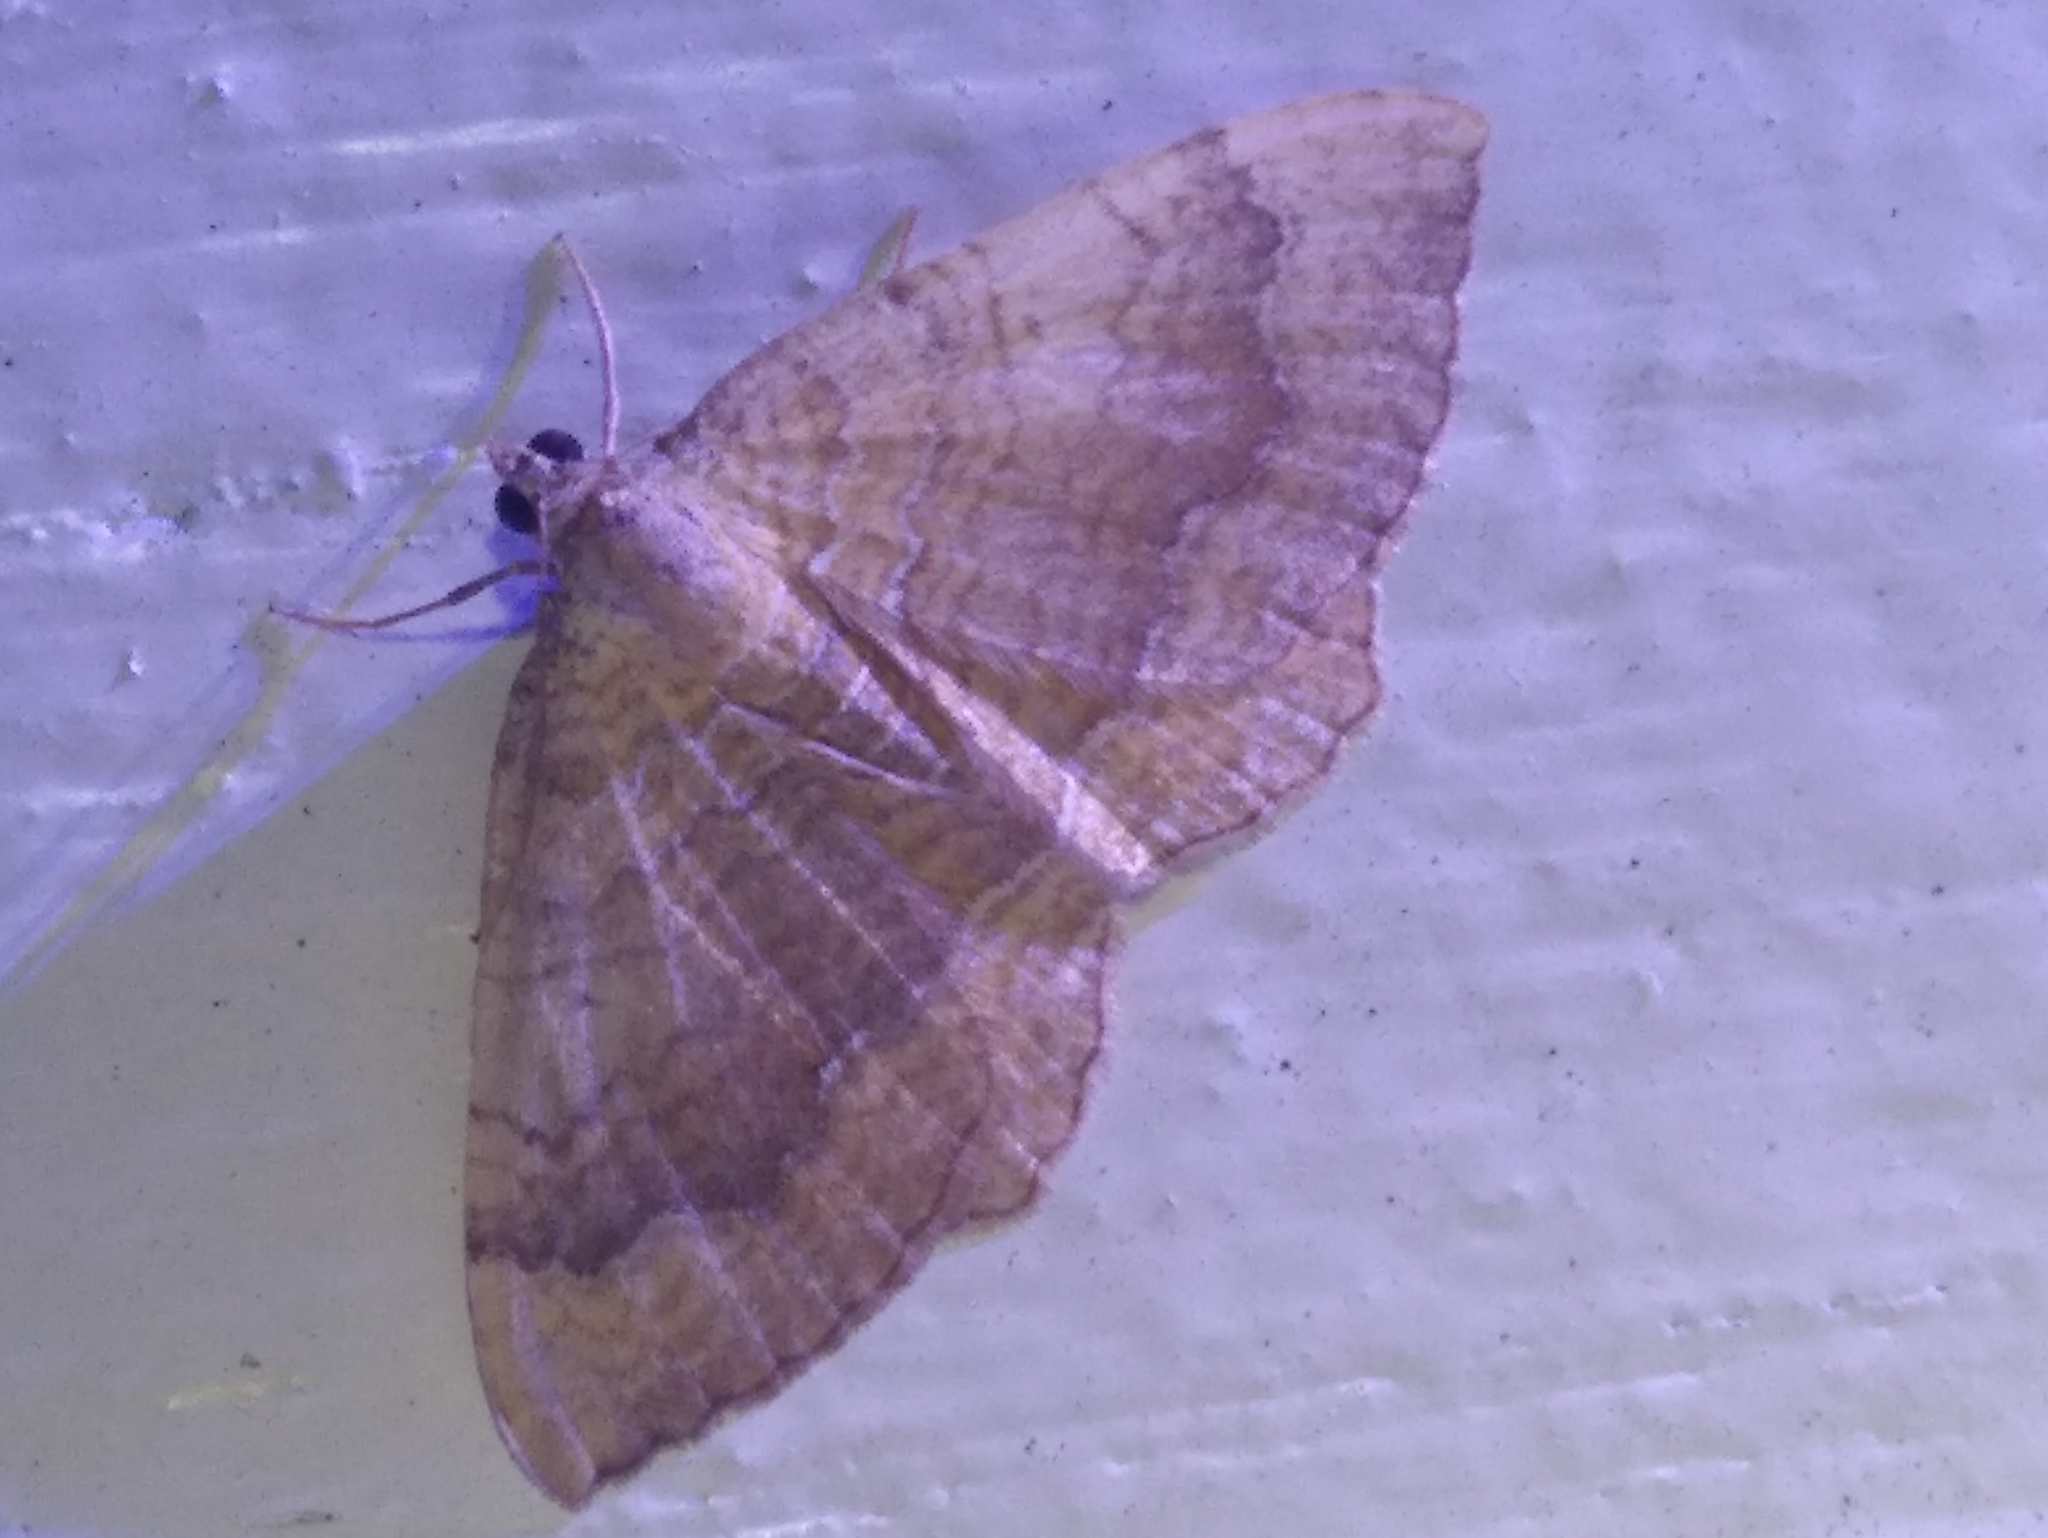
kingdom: Animalia
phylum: Arthropoda
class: Insecta
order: Lepidoptera
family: Geometridae
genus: Camptogramma
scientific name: Camptogramma bilineata
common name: Yellow shell
